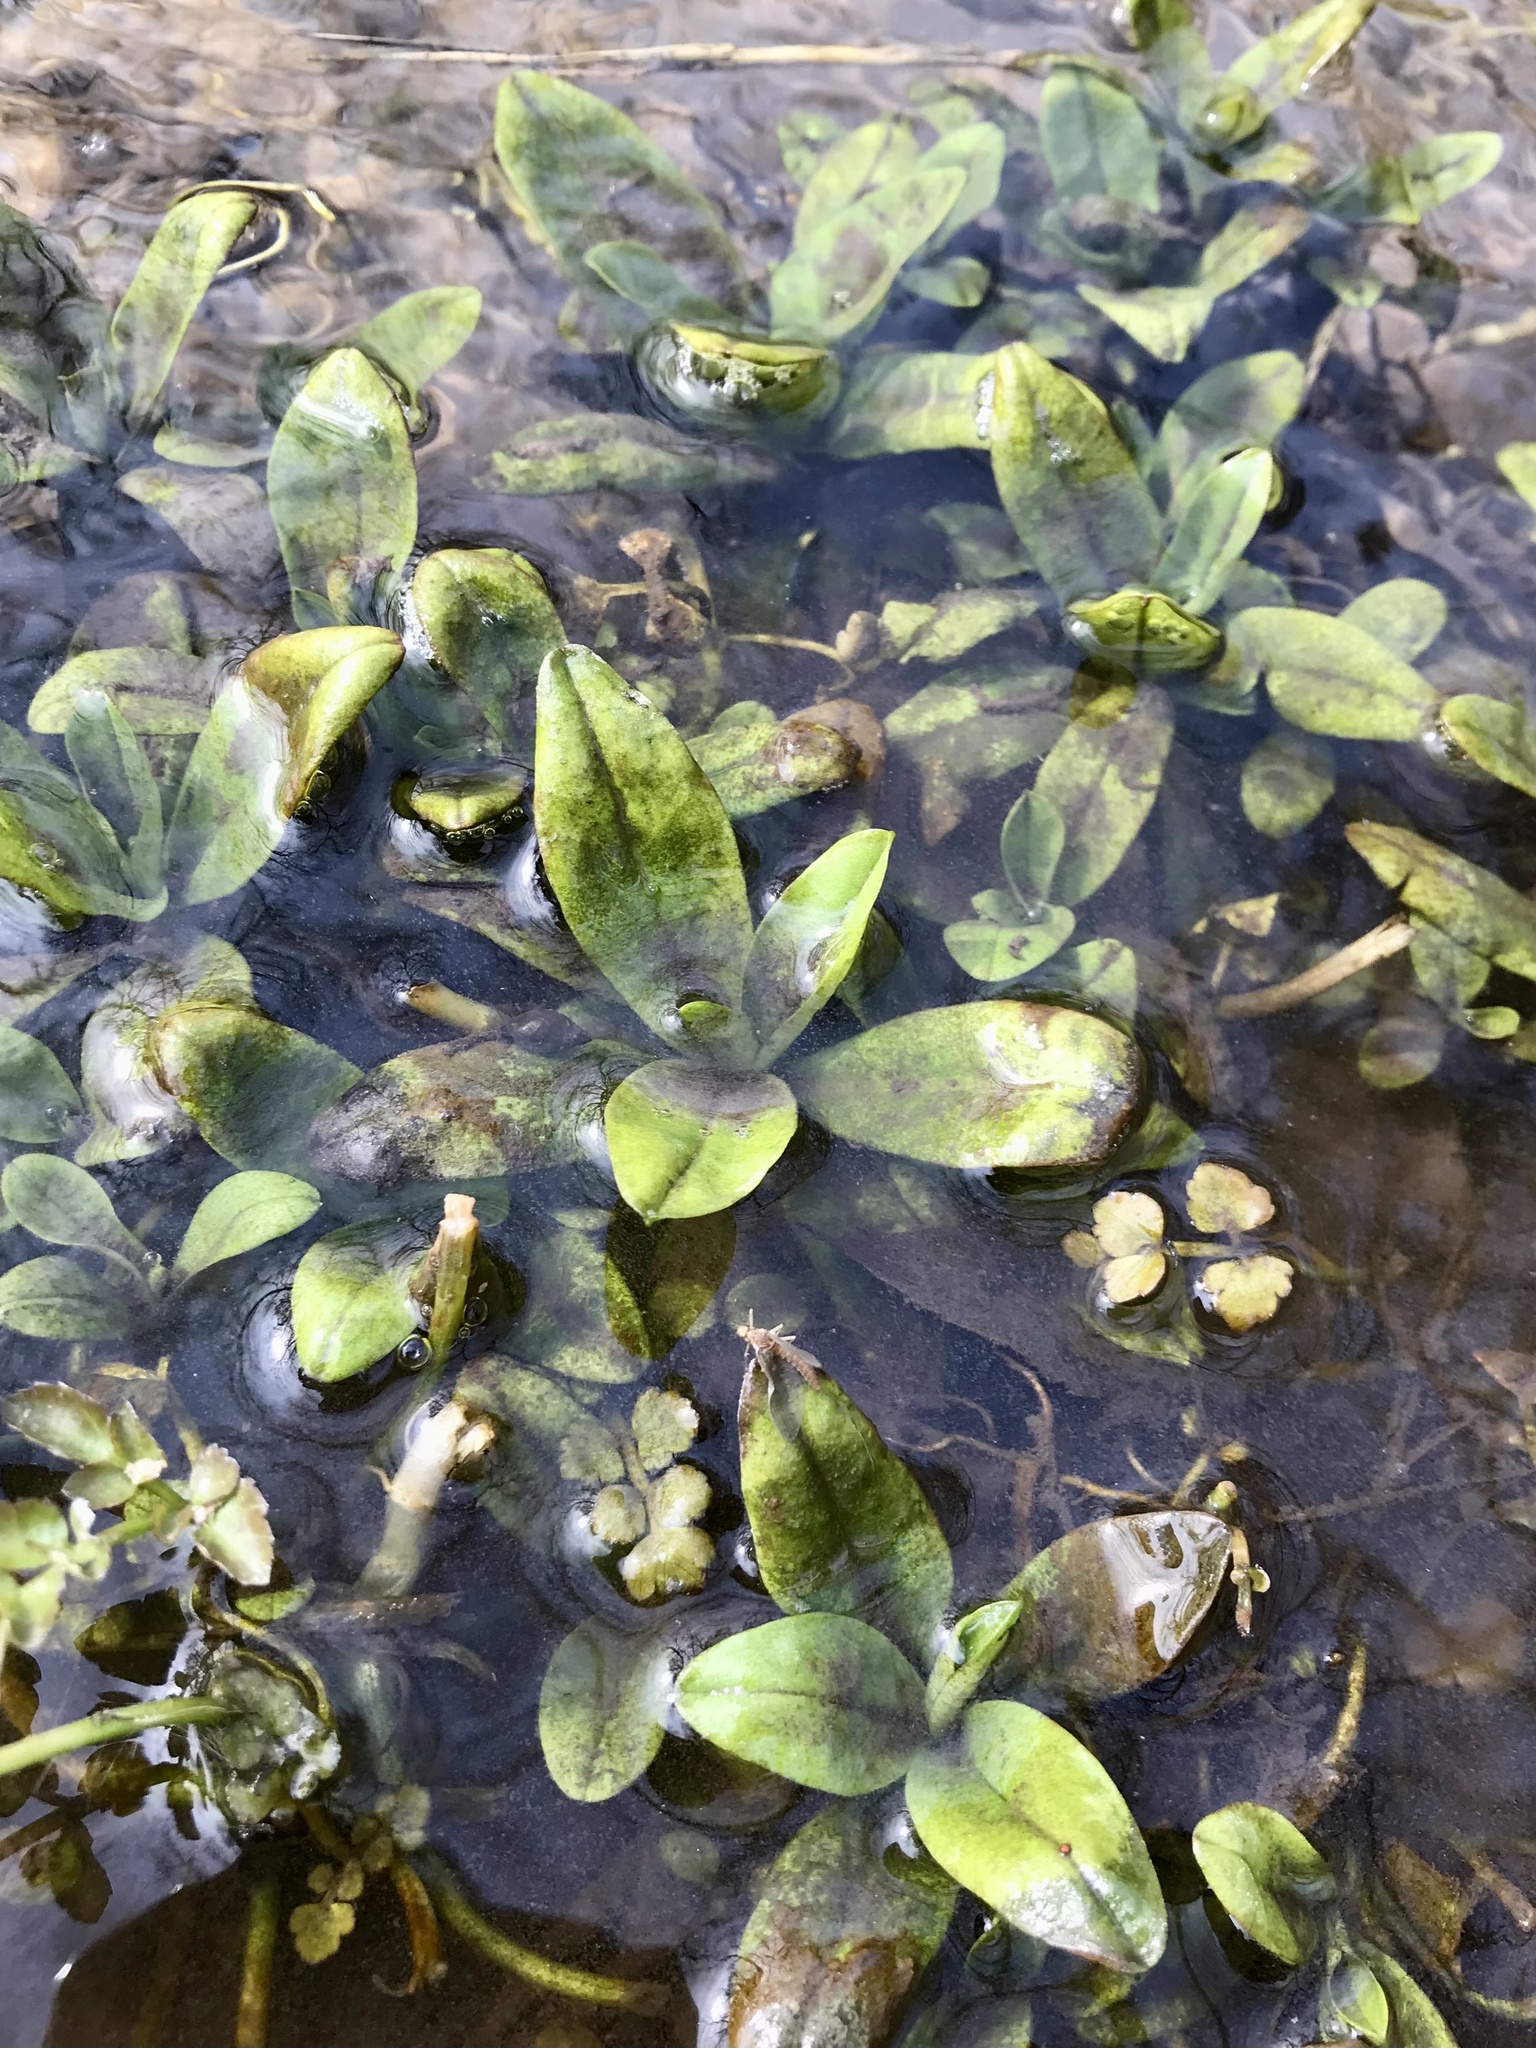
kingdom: Plantae
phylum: Tracheophyta
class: Magnoliopsida
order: Boraginales
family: Boraginaceae
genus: Myosotis
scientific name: Myosotis scorpioides
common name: Water forget-me-not
